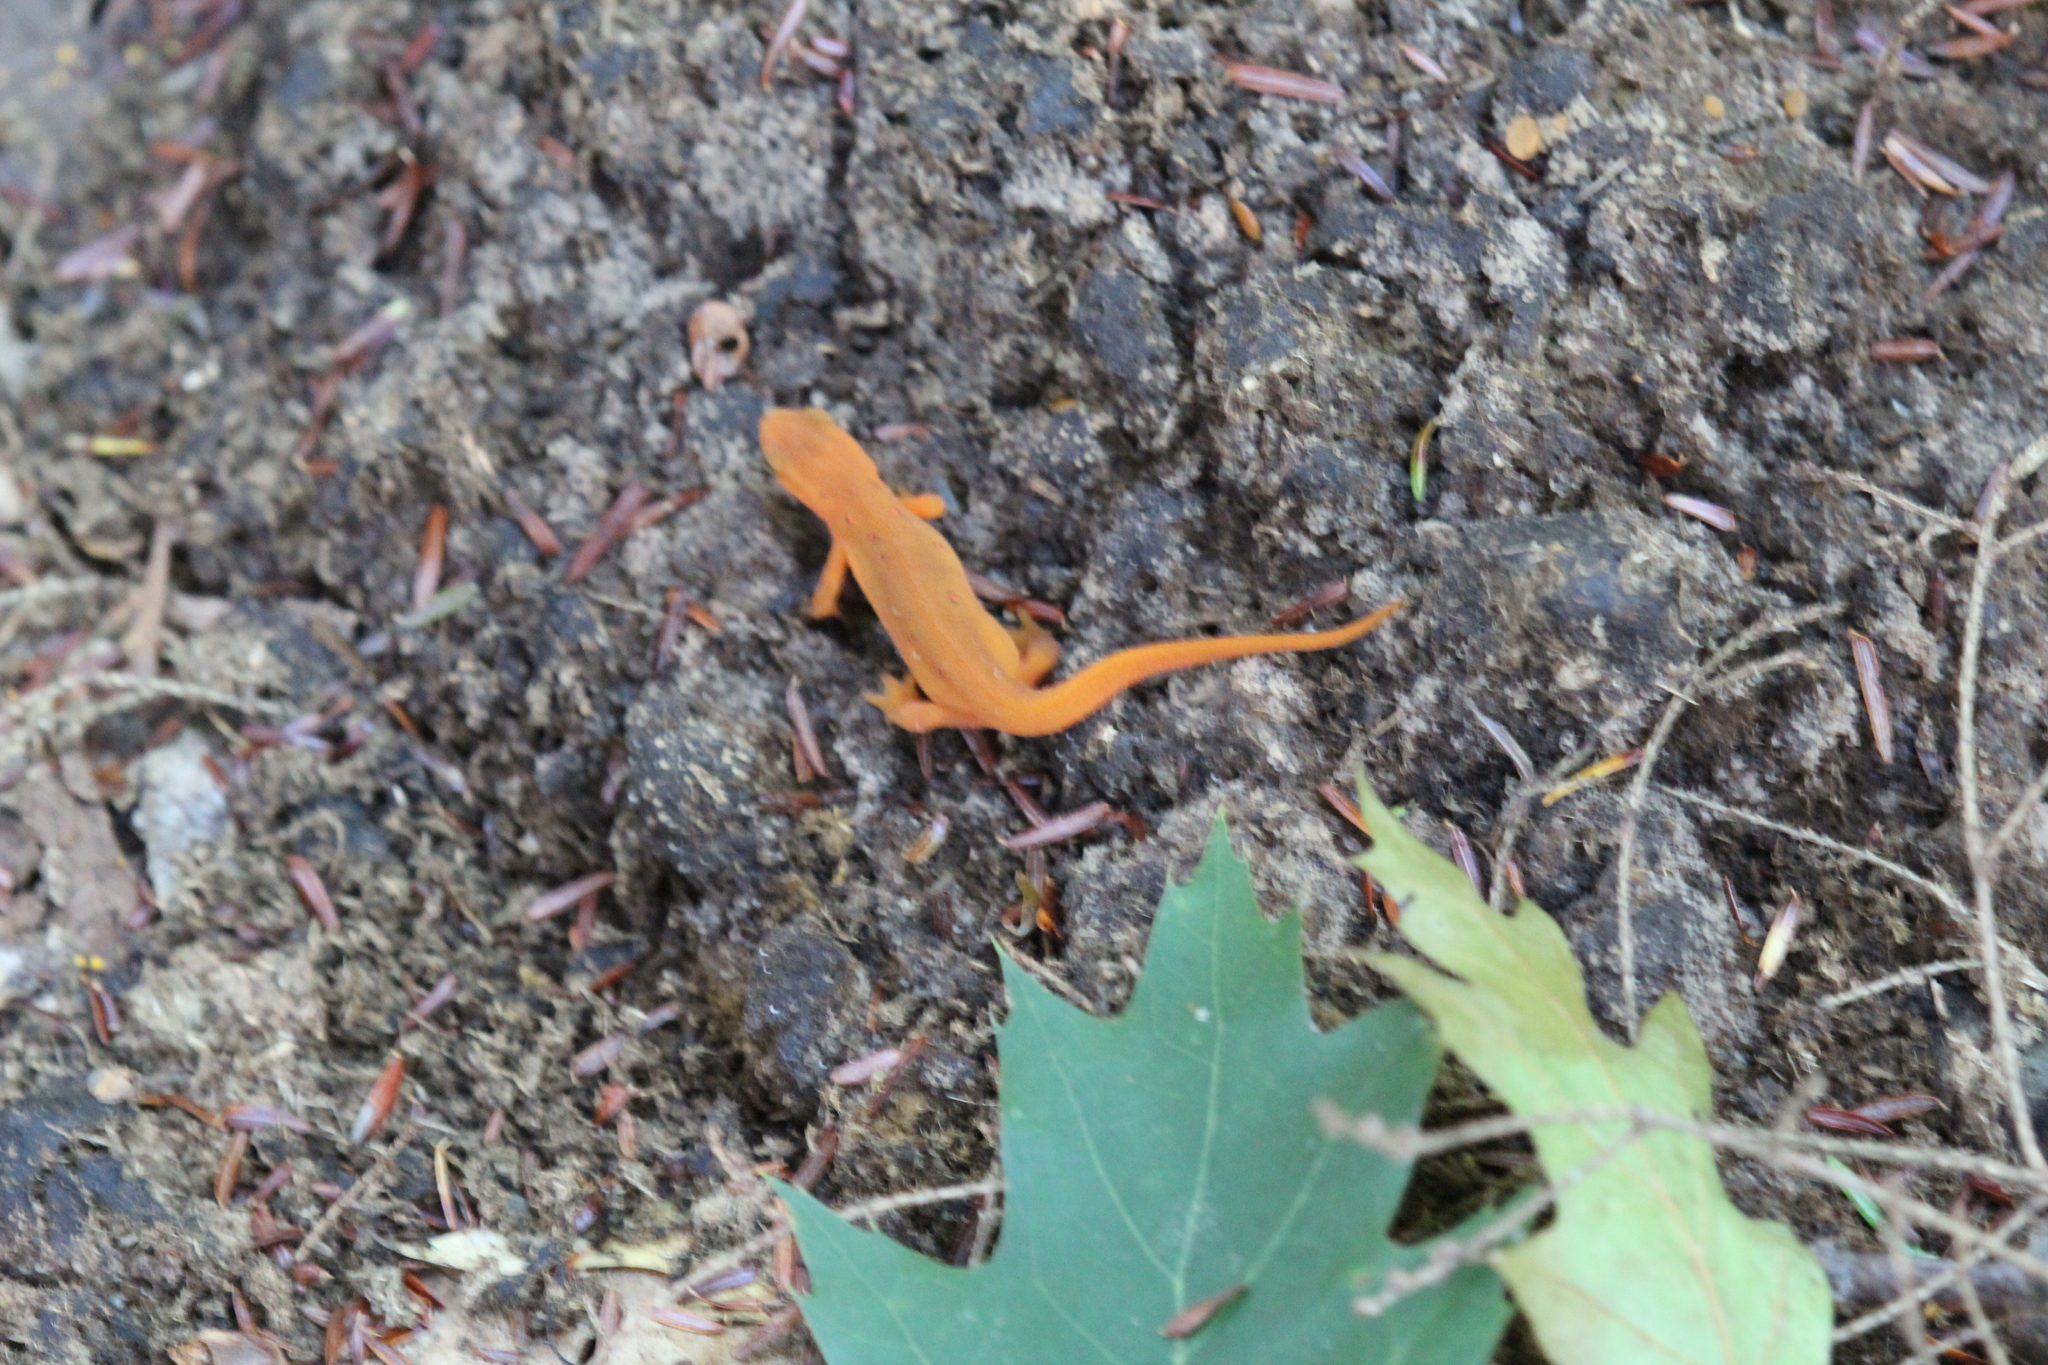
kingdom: Animalia
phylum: Chordata
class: Amphibia
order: Caudata
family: Salamandridae
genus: Notophthalmus
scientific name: Notophthalmus viridescens
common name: Eastern newt
